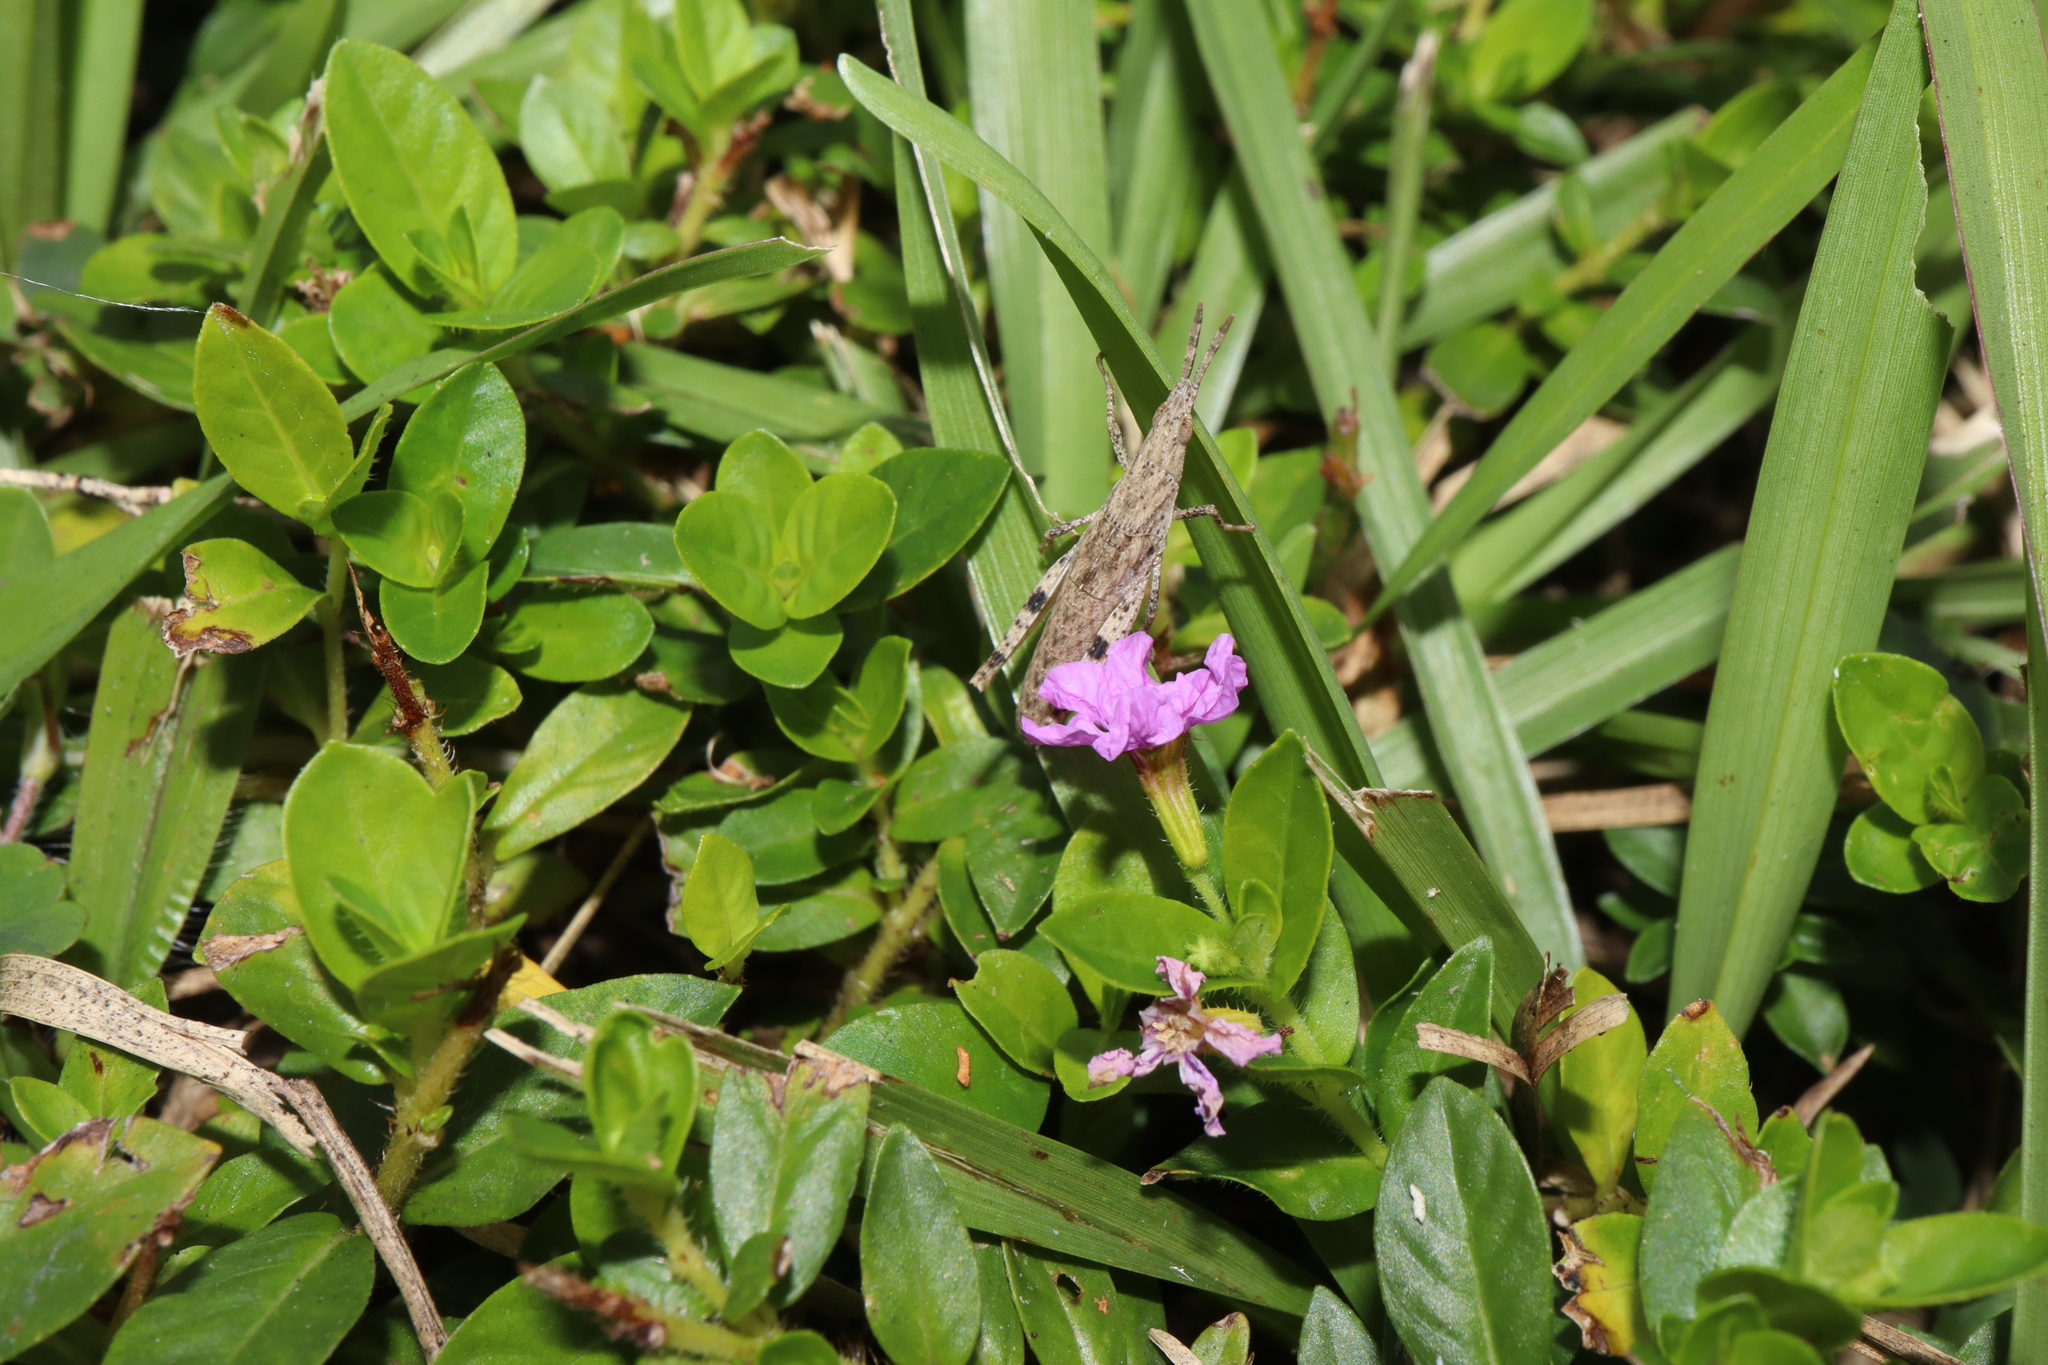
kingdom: Animalia
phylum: Arthropoda
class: Insecta
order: Orthoptera
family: Pyrgomorphidae
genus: Atractomorpha
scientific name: Atractomorpha similis
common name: Northern grass pyrgomorph
